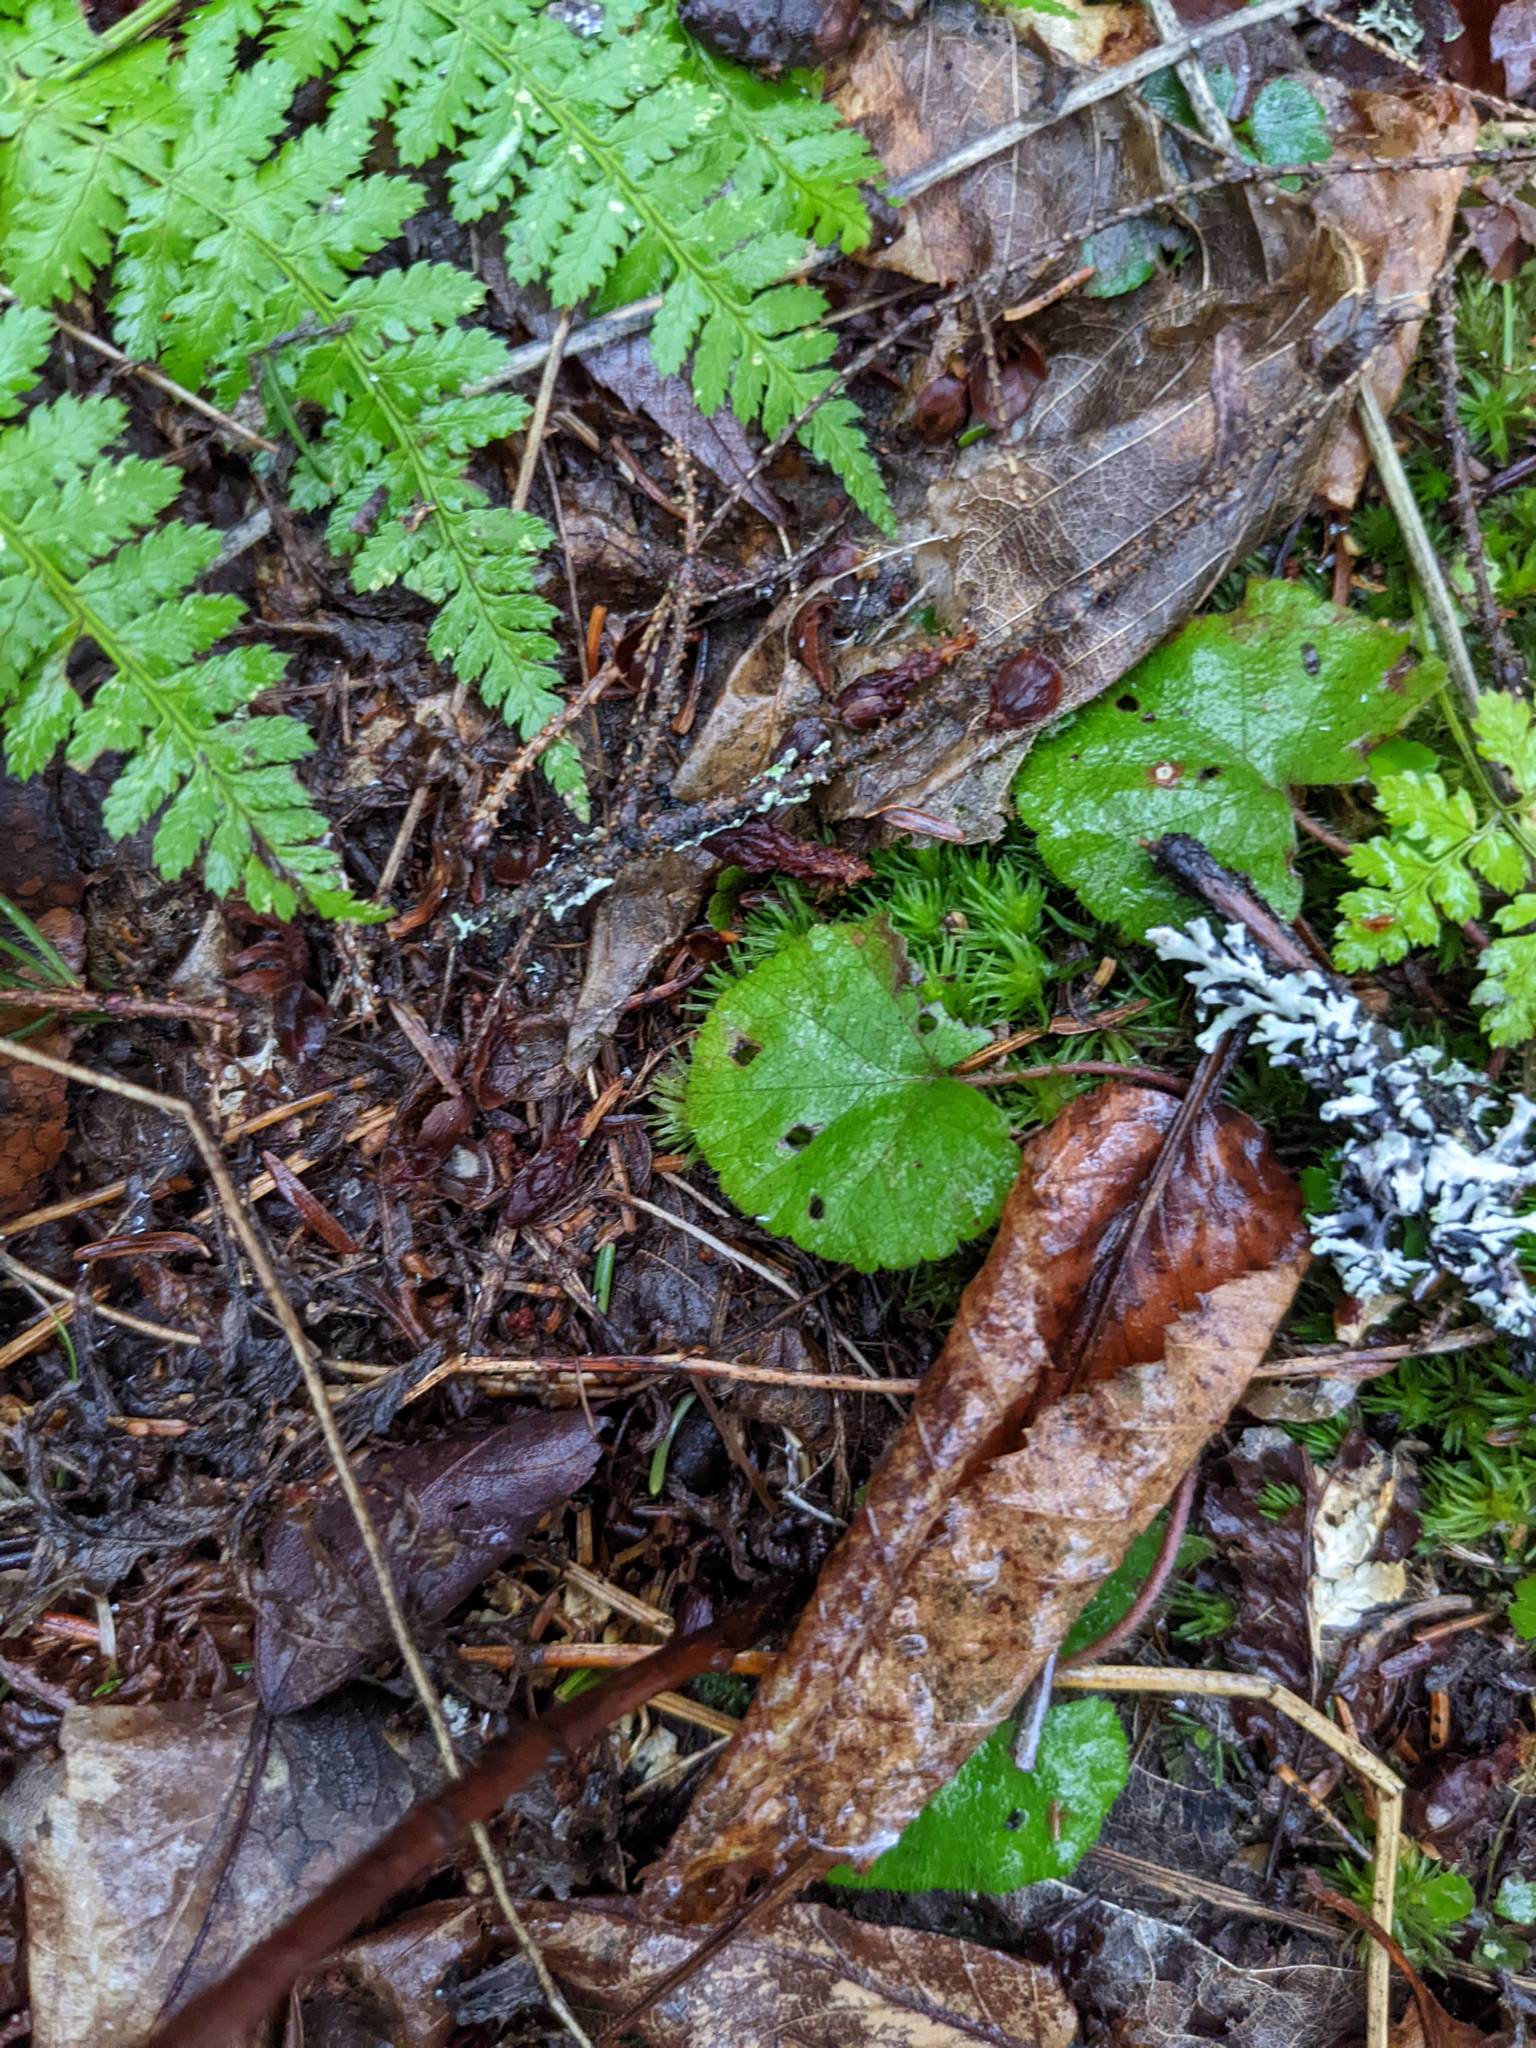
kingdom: Plantae
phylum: Tracheophyta
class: Magnoliopsida
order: Rosales
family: Rosaceae
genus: Dalibarda
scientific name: Dalibarda repens
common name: Dewdrop
